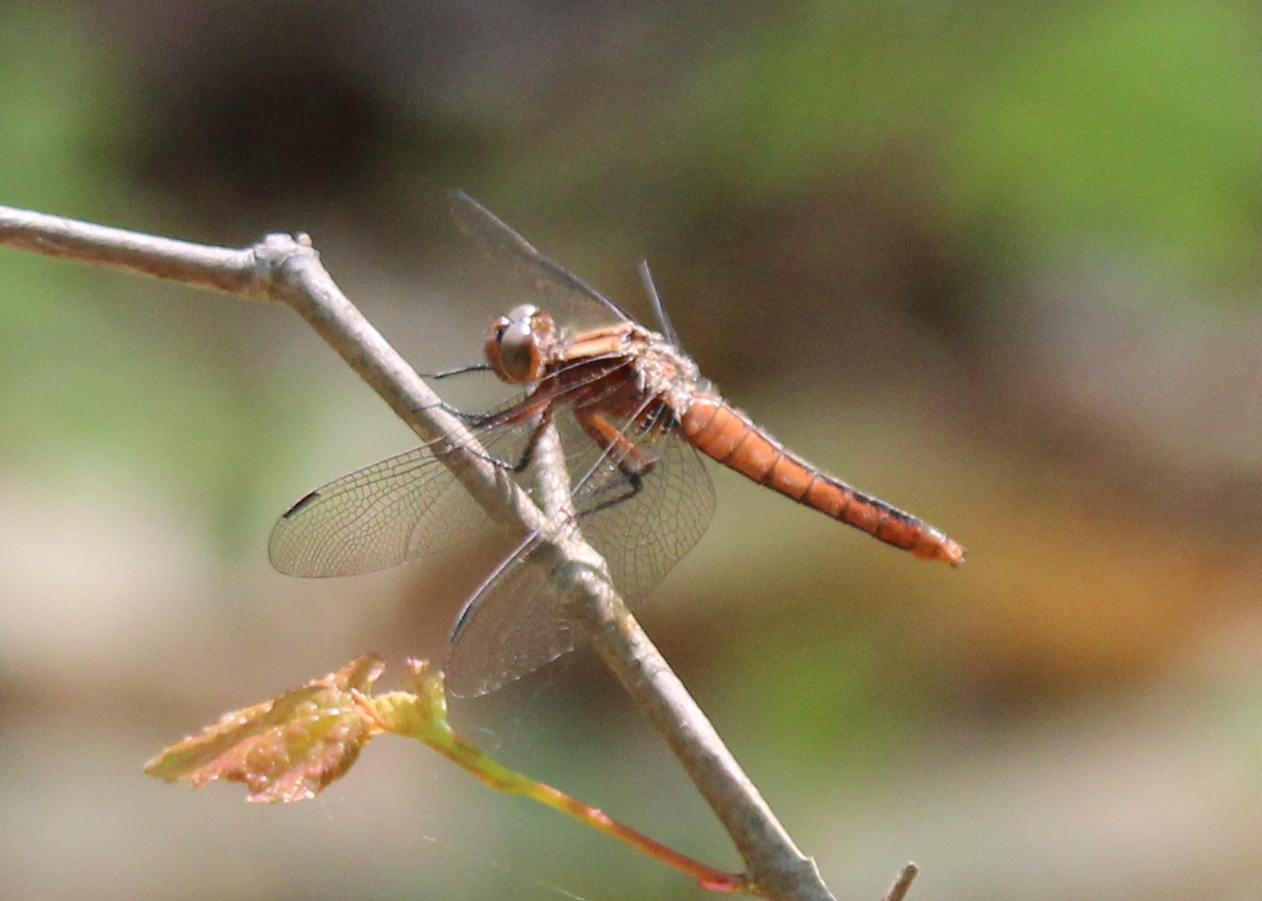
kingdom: Animalia
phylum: Arthropoda
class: Insecta
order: Odonata
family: Libellulidae
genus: Ladona
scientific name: Ladona julia
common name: Chalk-fronted corporal
